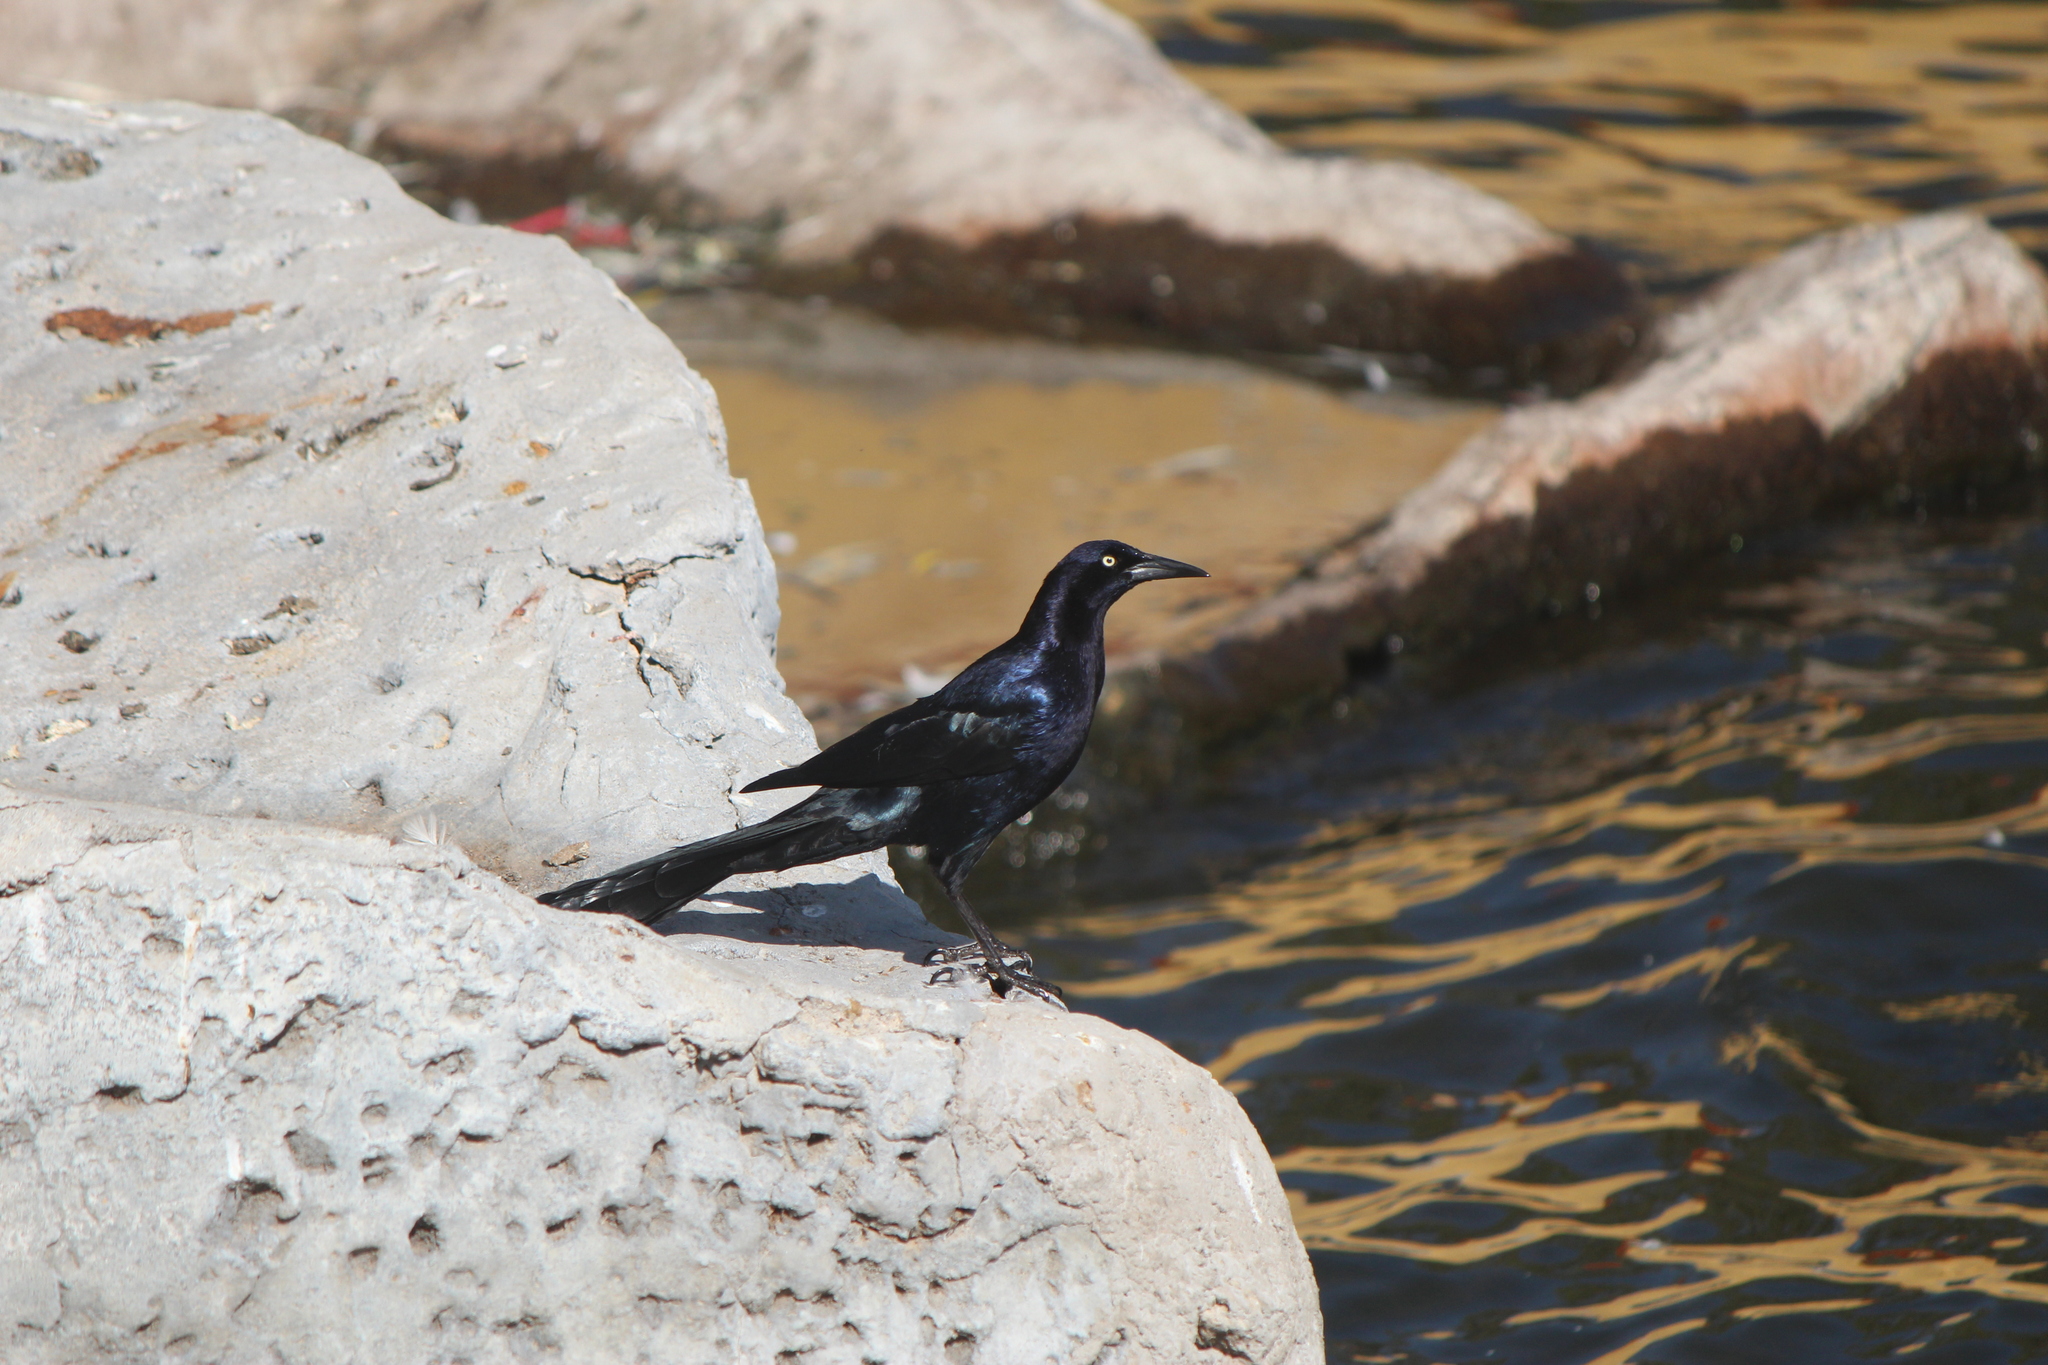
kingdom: Animalia
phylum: Chordata
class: Aves
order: Passeriformes
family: Icteridae
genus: Quiscalus
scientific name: Quiscalus mexicanus
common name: Great-tailed grackle
